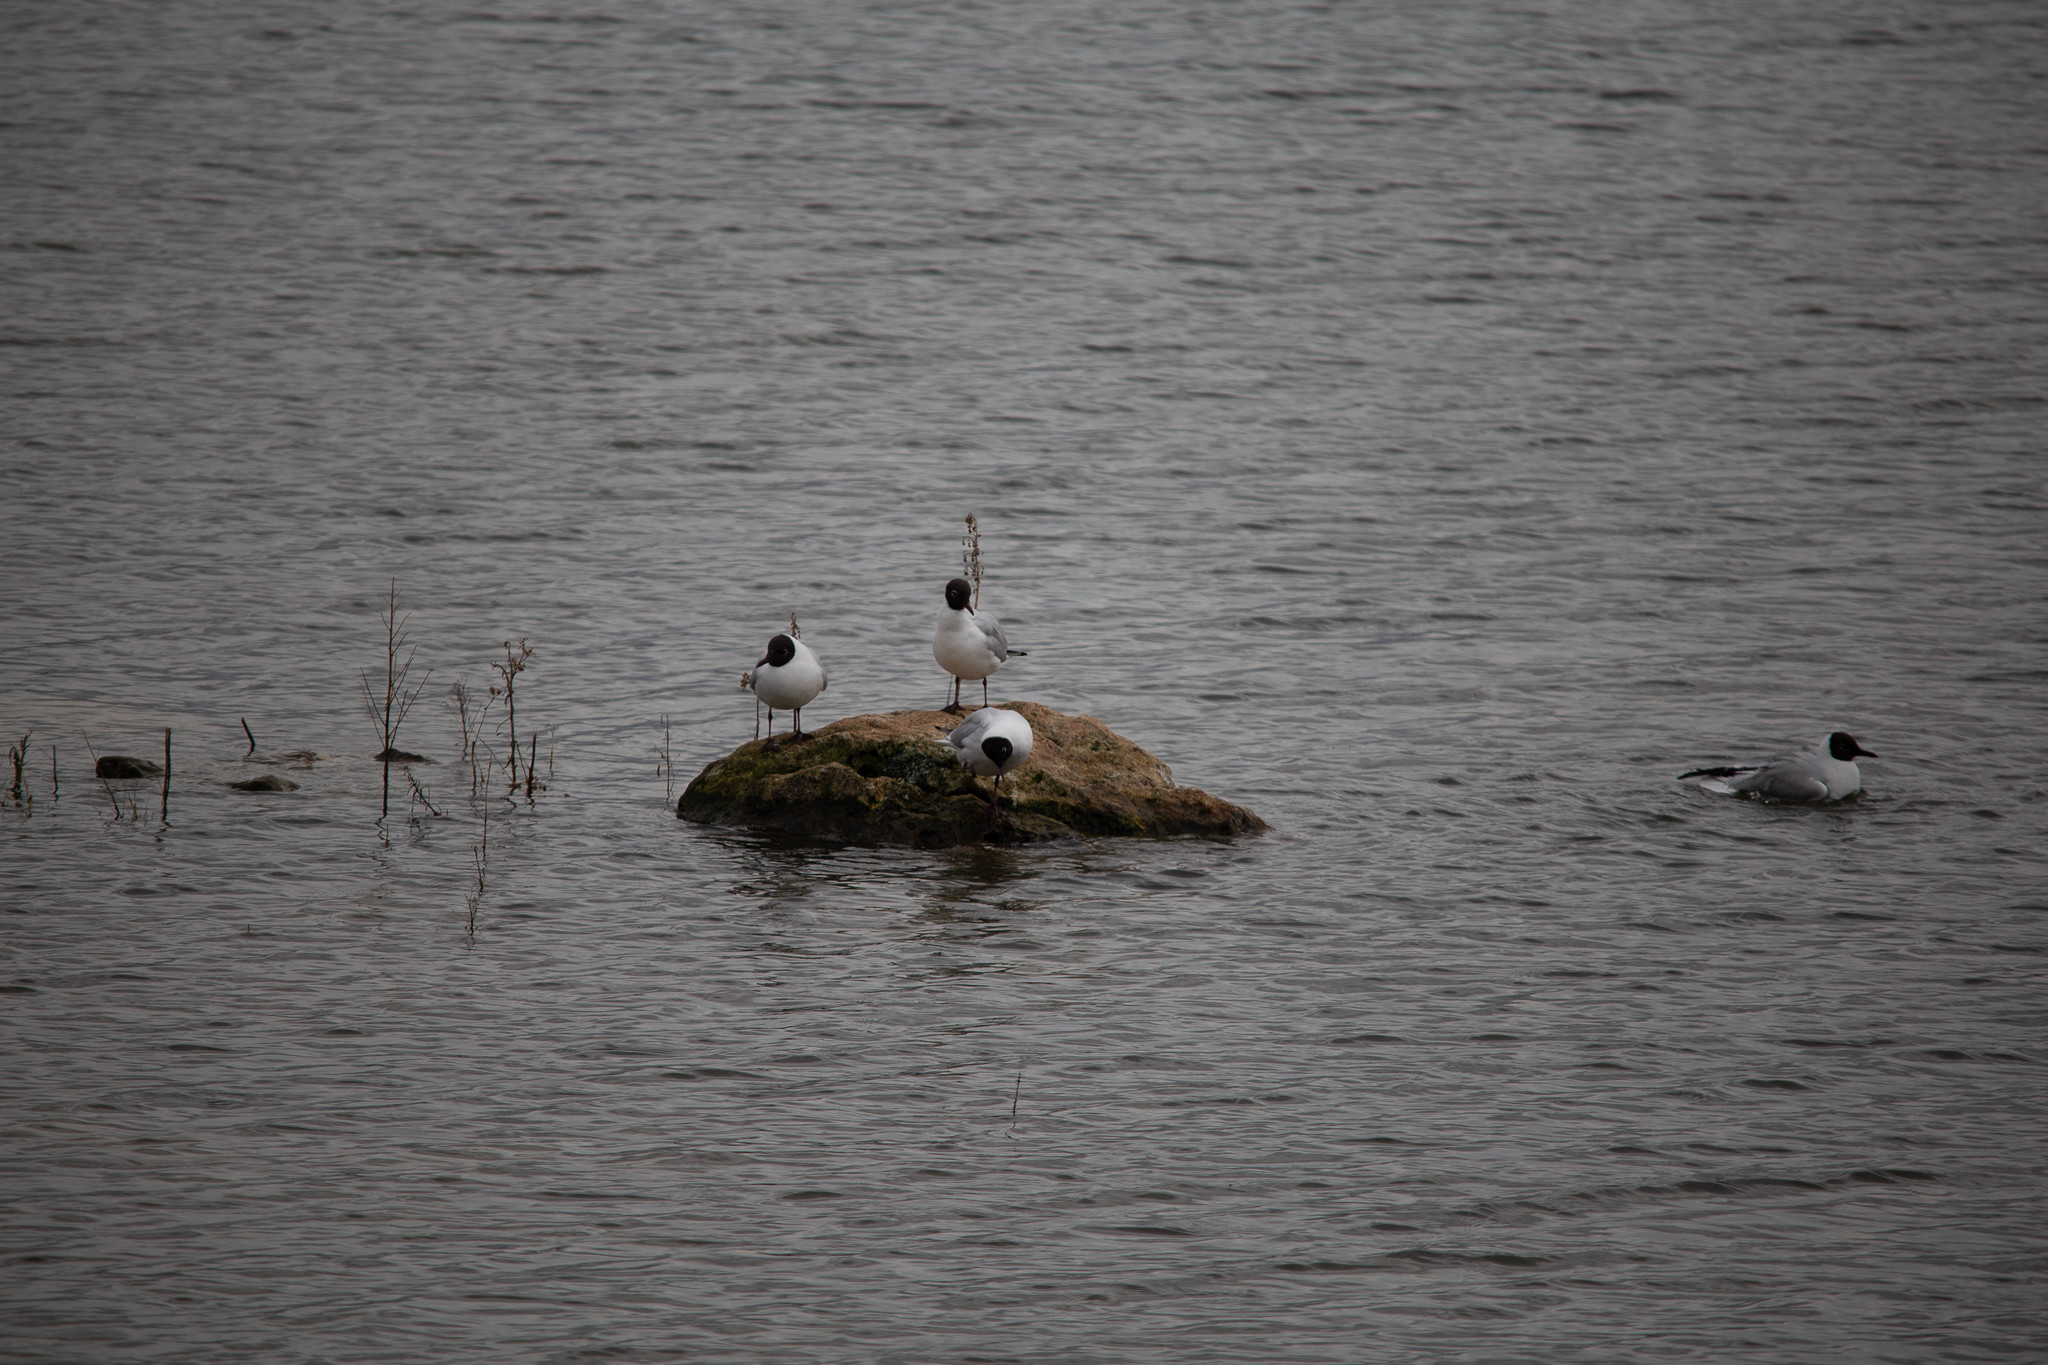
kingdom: Animalia
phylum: Chordata
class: Aves
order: Charadriiformes
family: Laridae
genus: Chroicocephalus
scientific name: Chroicocephalus ridibundus
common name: Black-headed gull
